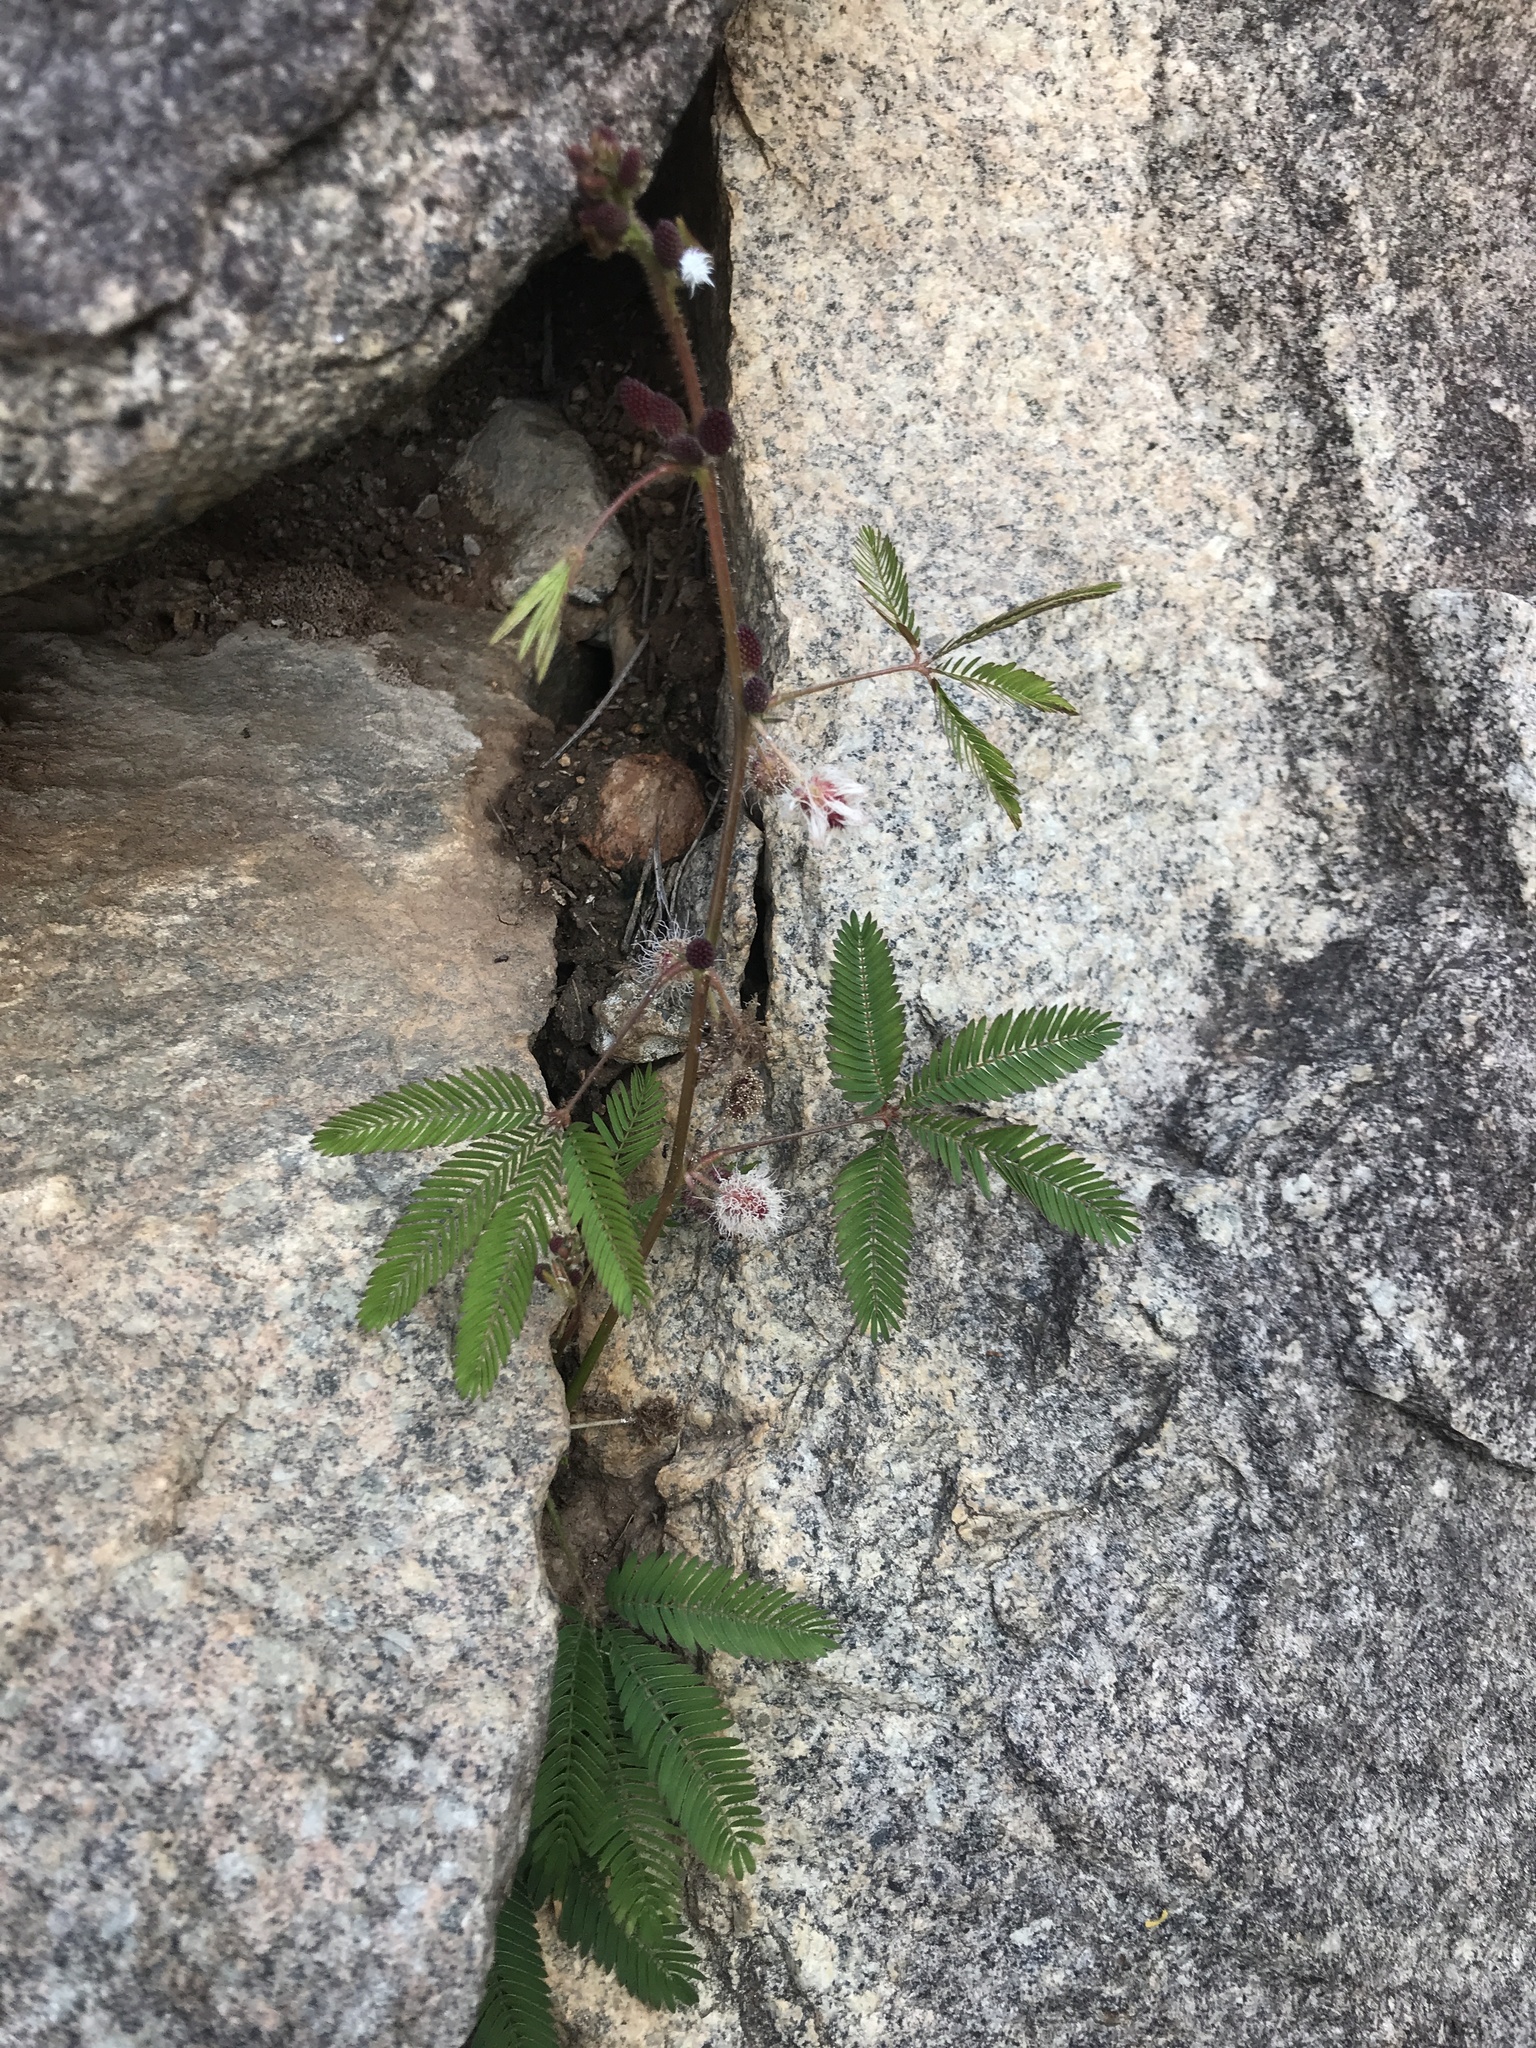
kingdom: Plantae
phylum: Tracheophyta
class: Magnoliopsida
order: Fabales
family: Fabaceae
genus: Mimosa
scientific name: Mimosa pudica
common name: Sensitive plant
